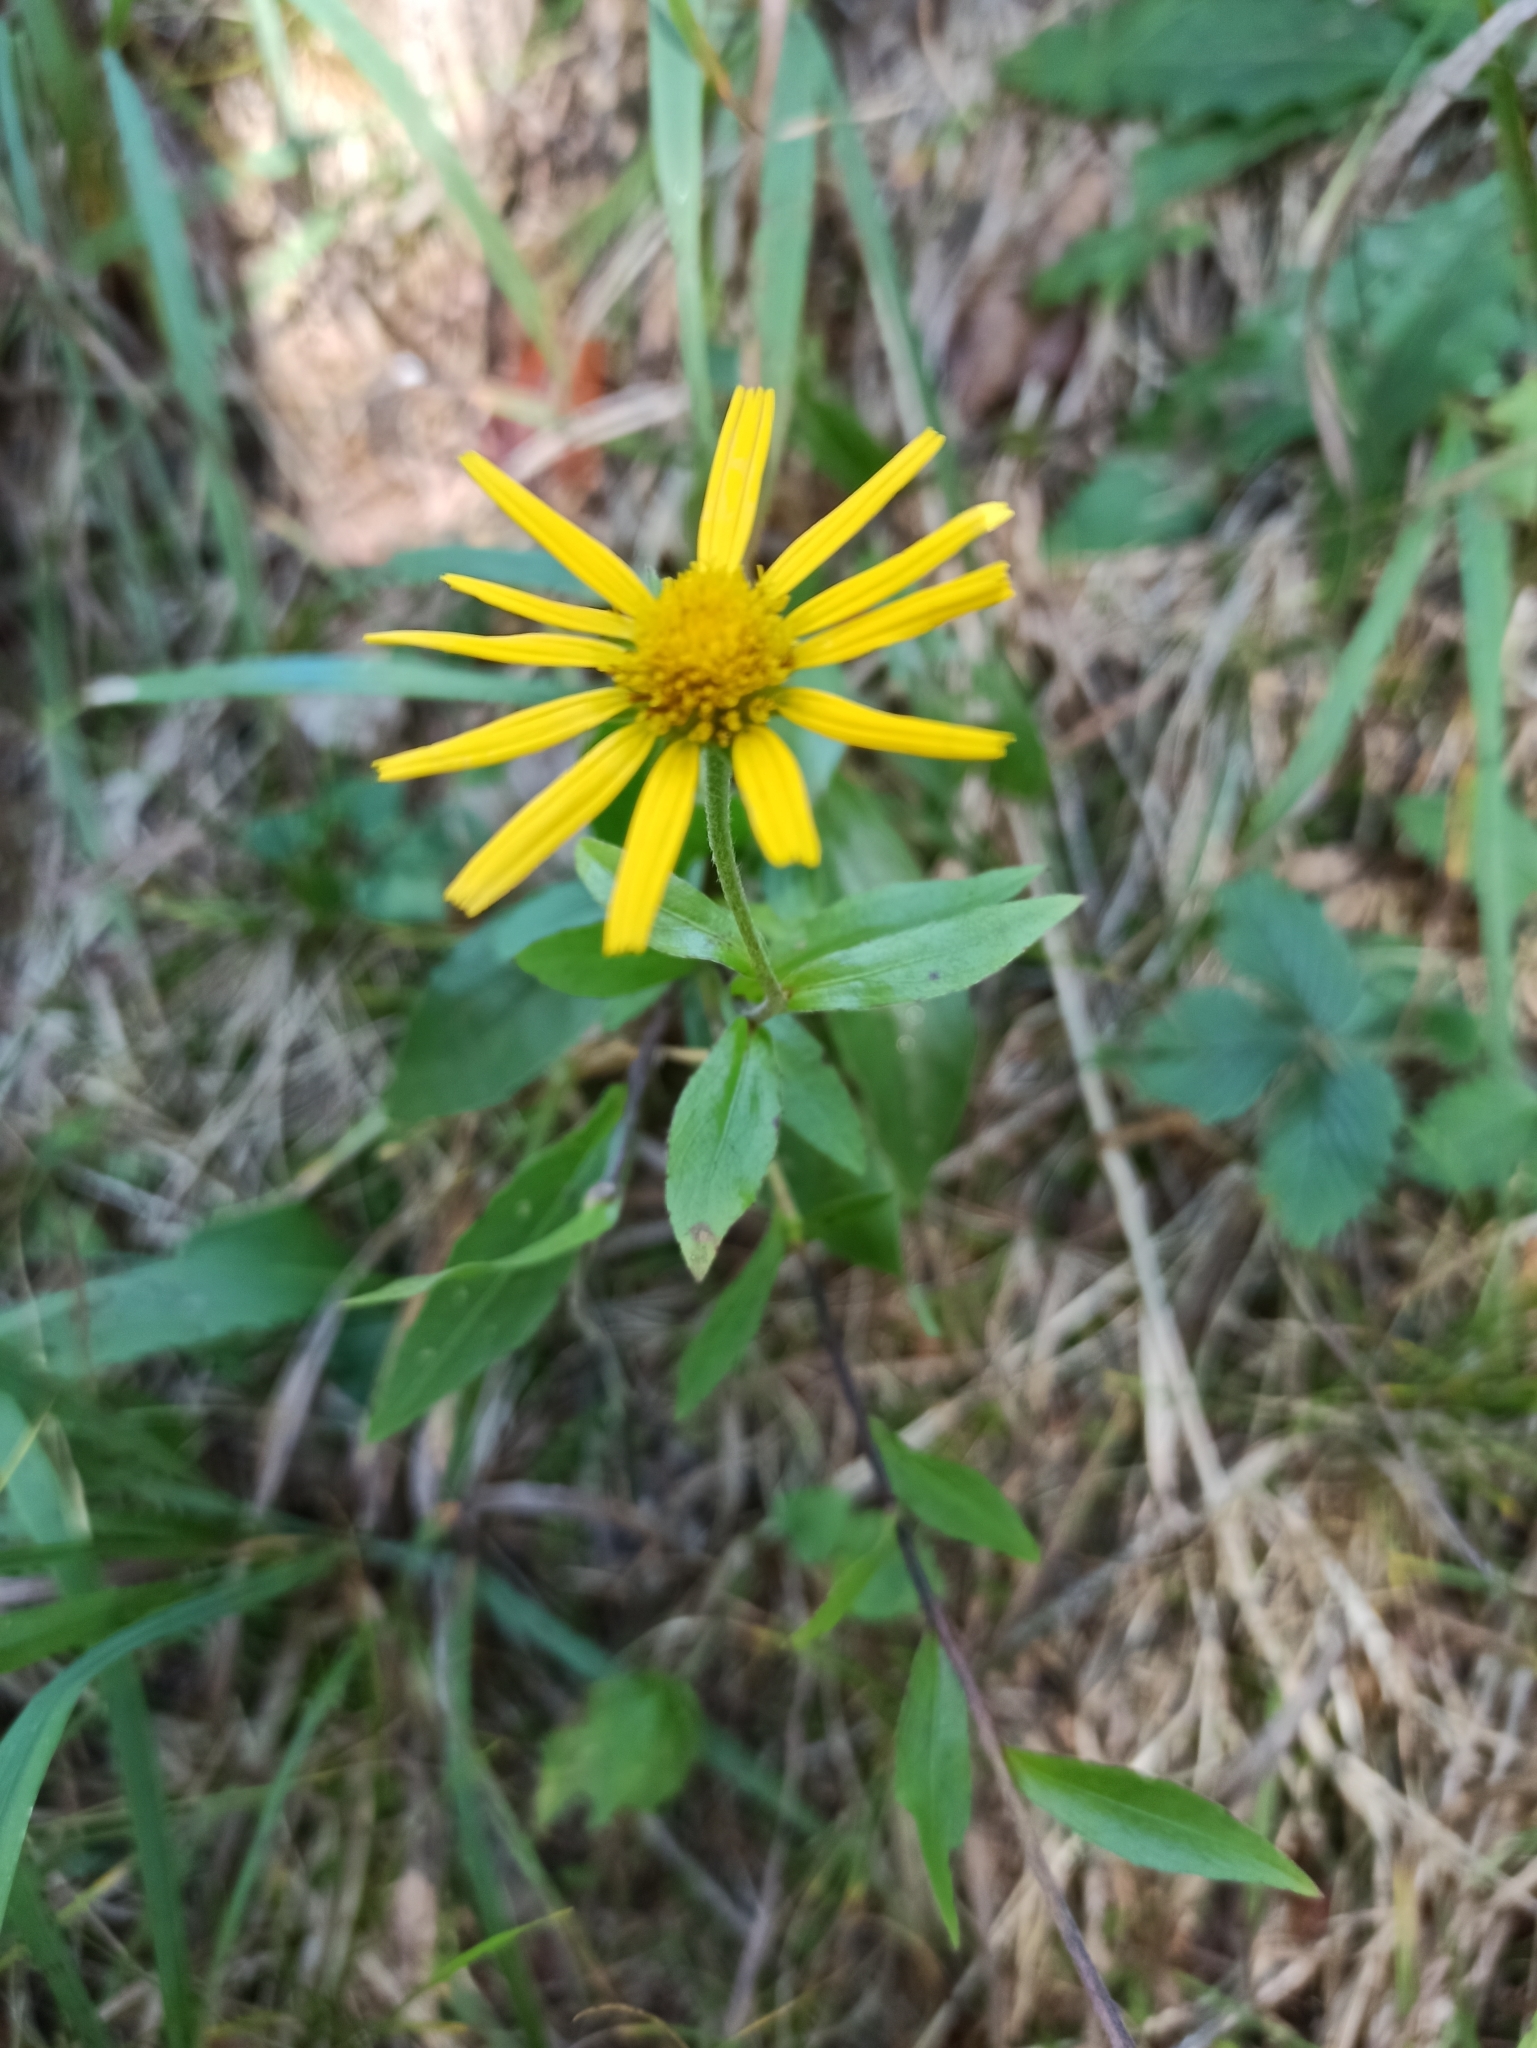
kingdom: Plantae
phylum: Tracheophyta
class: Magnoliopsida
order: Asterales
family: Asteraceae
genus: Buphthalmum
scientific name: Buphthalmum salicifolium
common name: Willow-leaved yellow-oxeye
